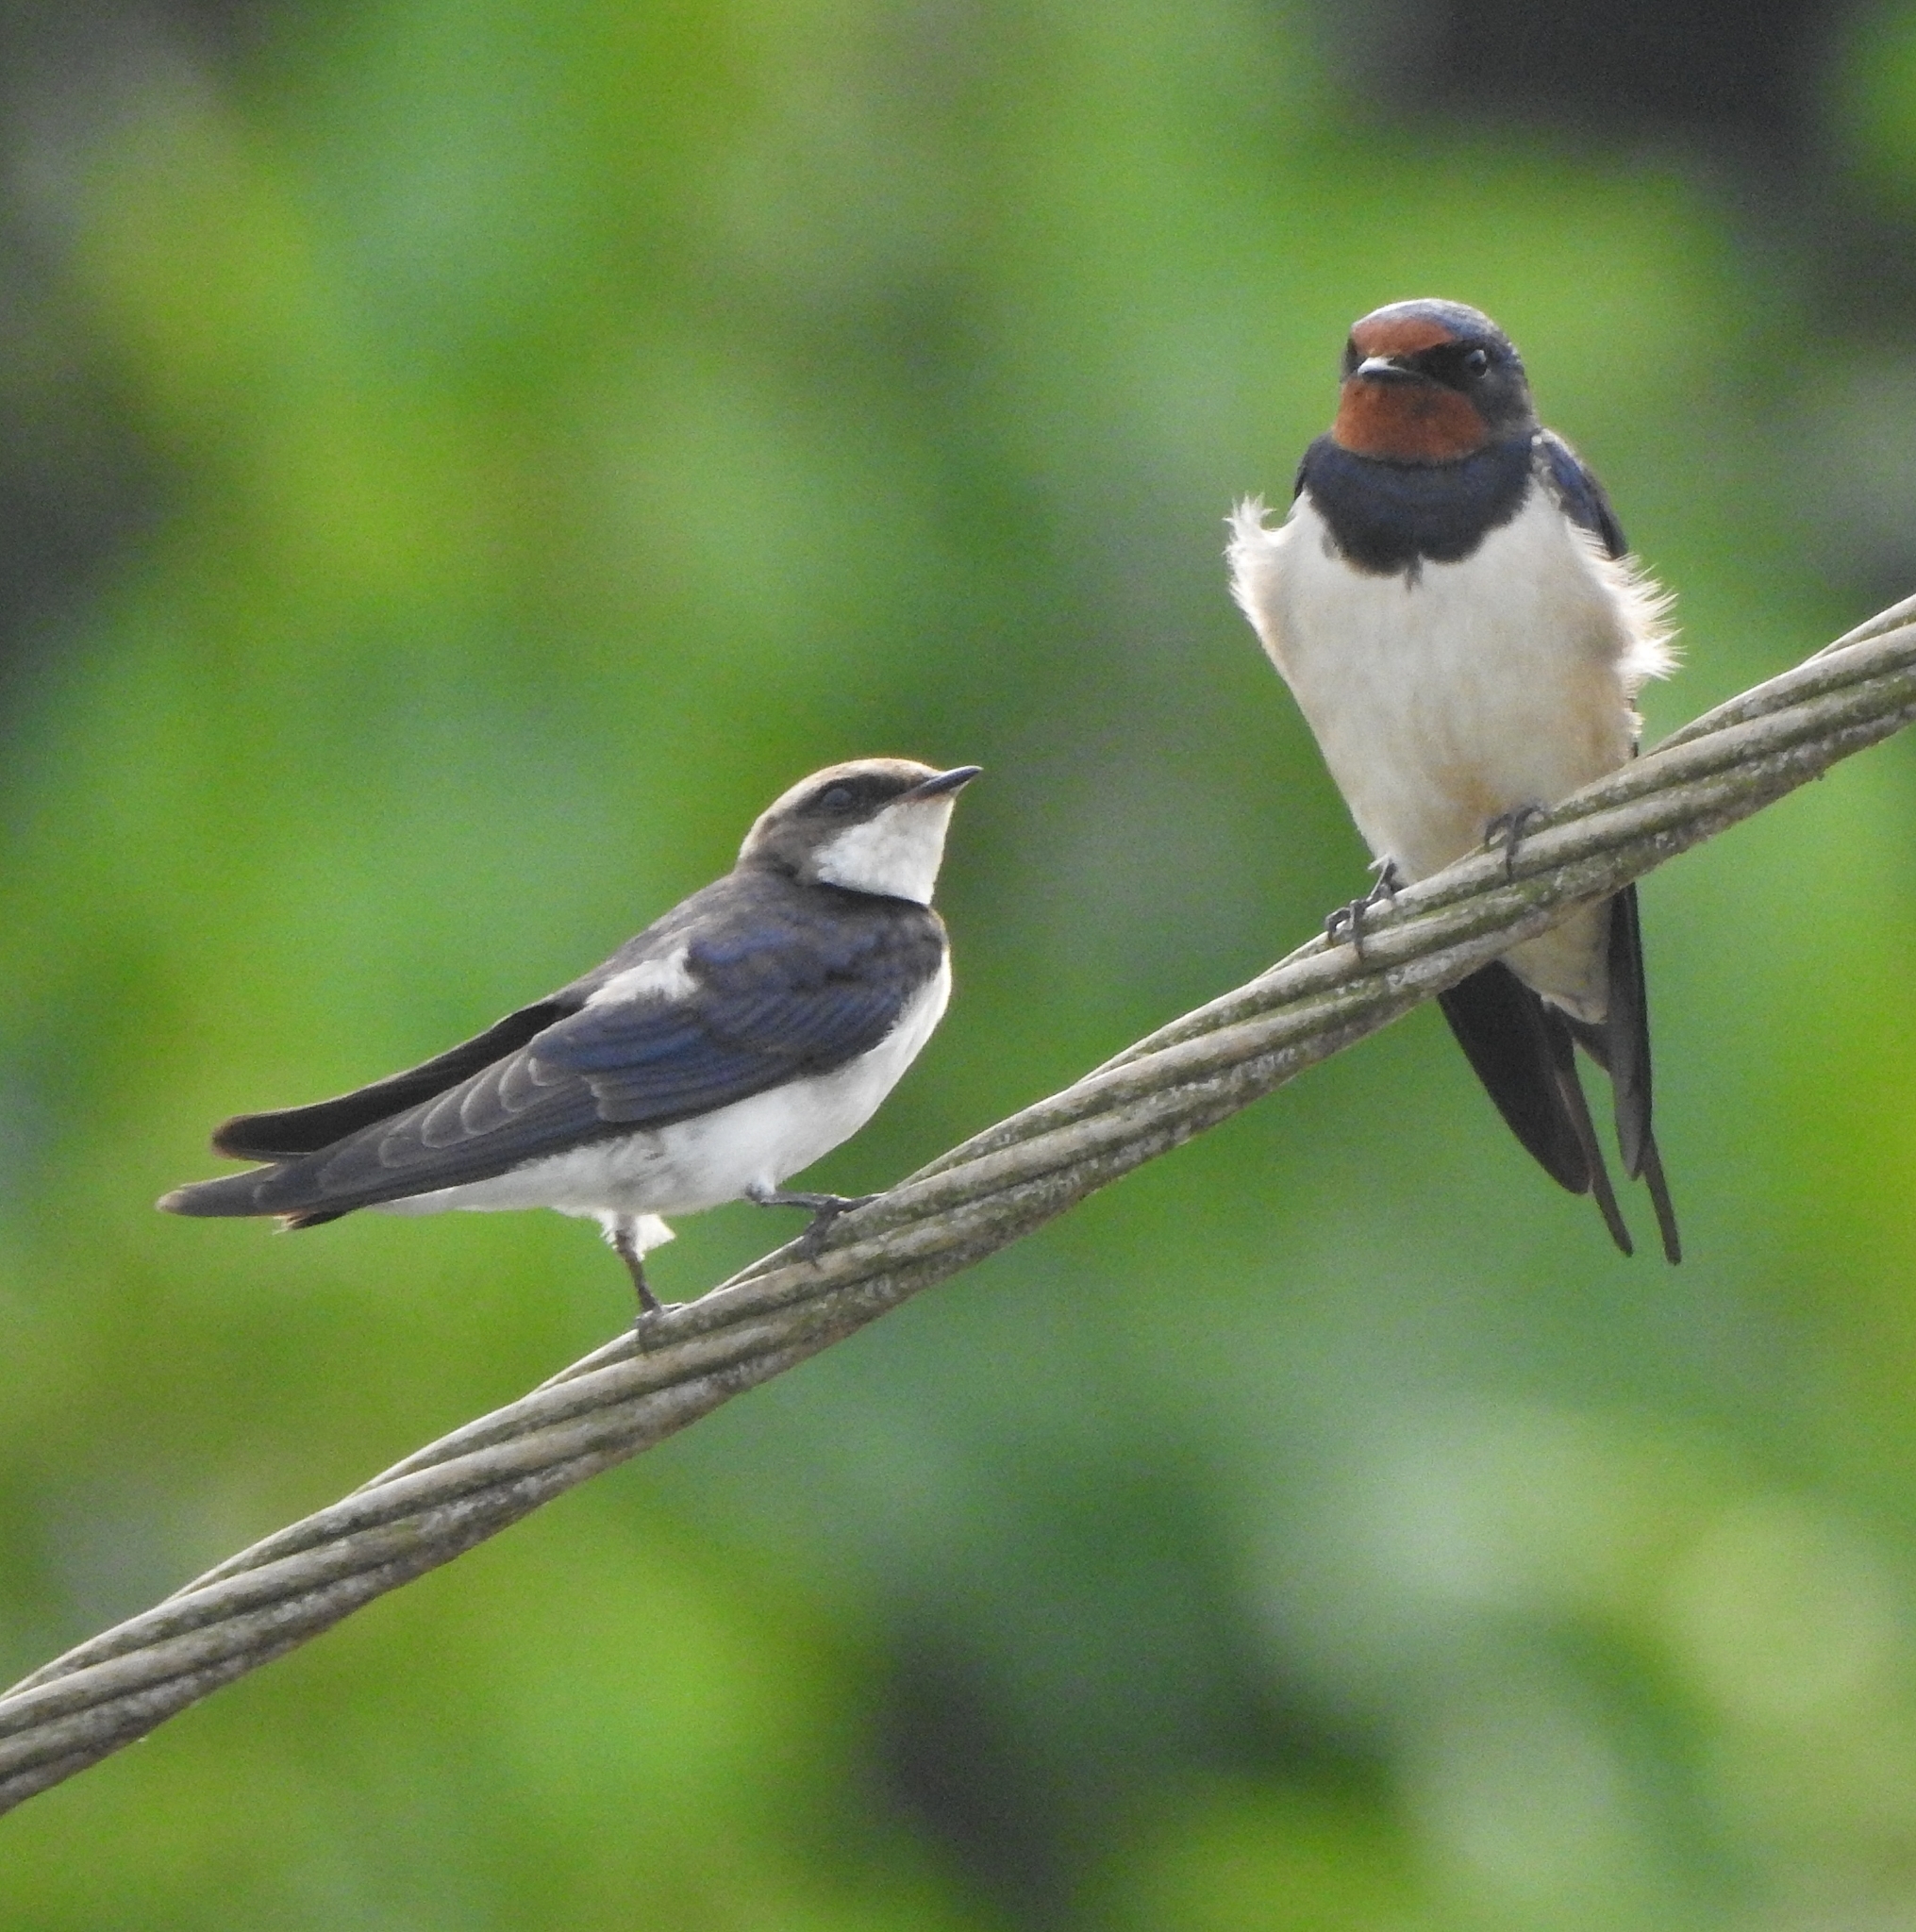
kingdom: Animalia
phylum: Chordata
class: Aves
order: Passeriformes
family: Hirundinidae
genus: Hirundo
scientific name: Hirundo rustica
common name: Barn swallow
